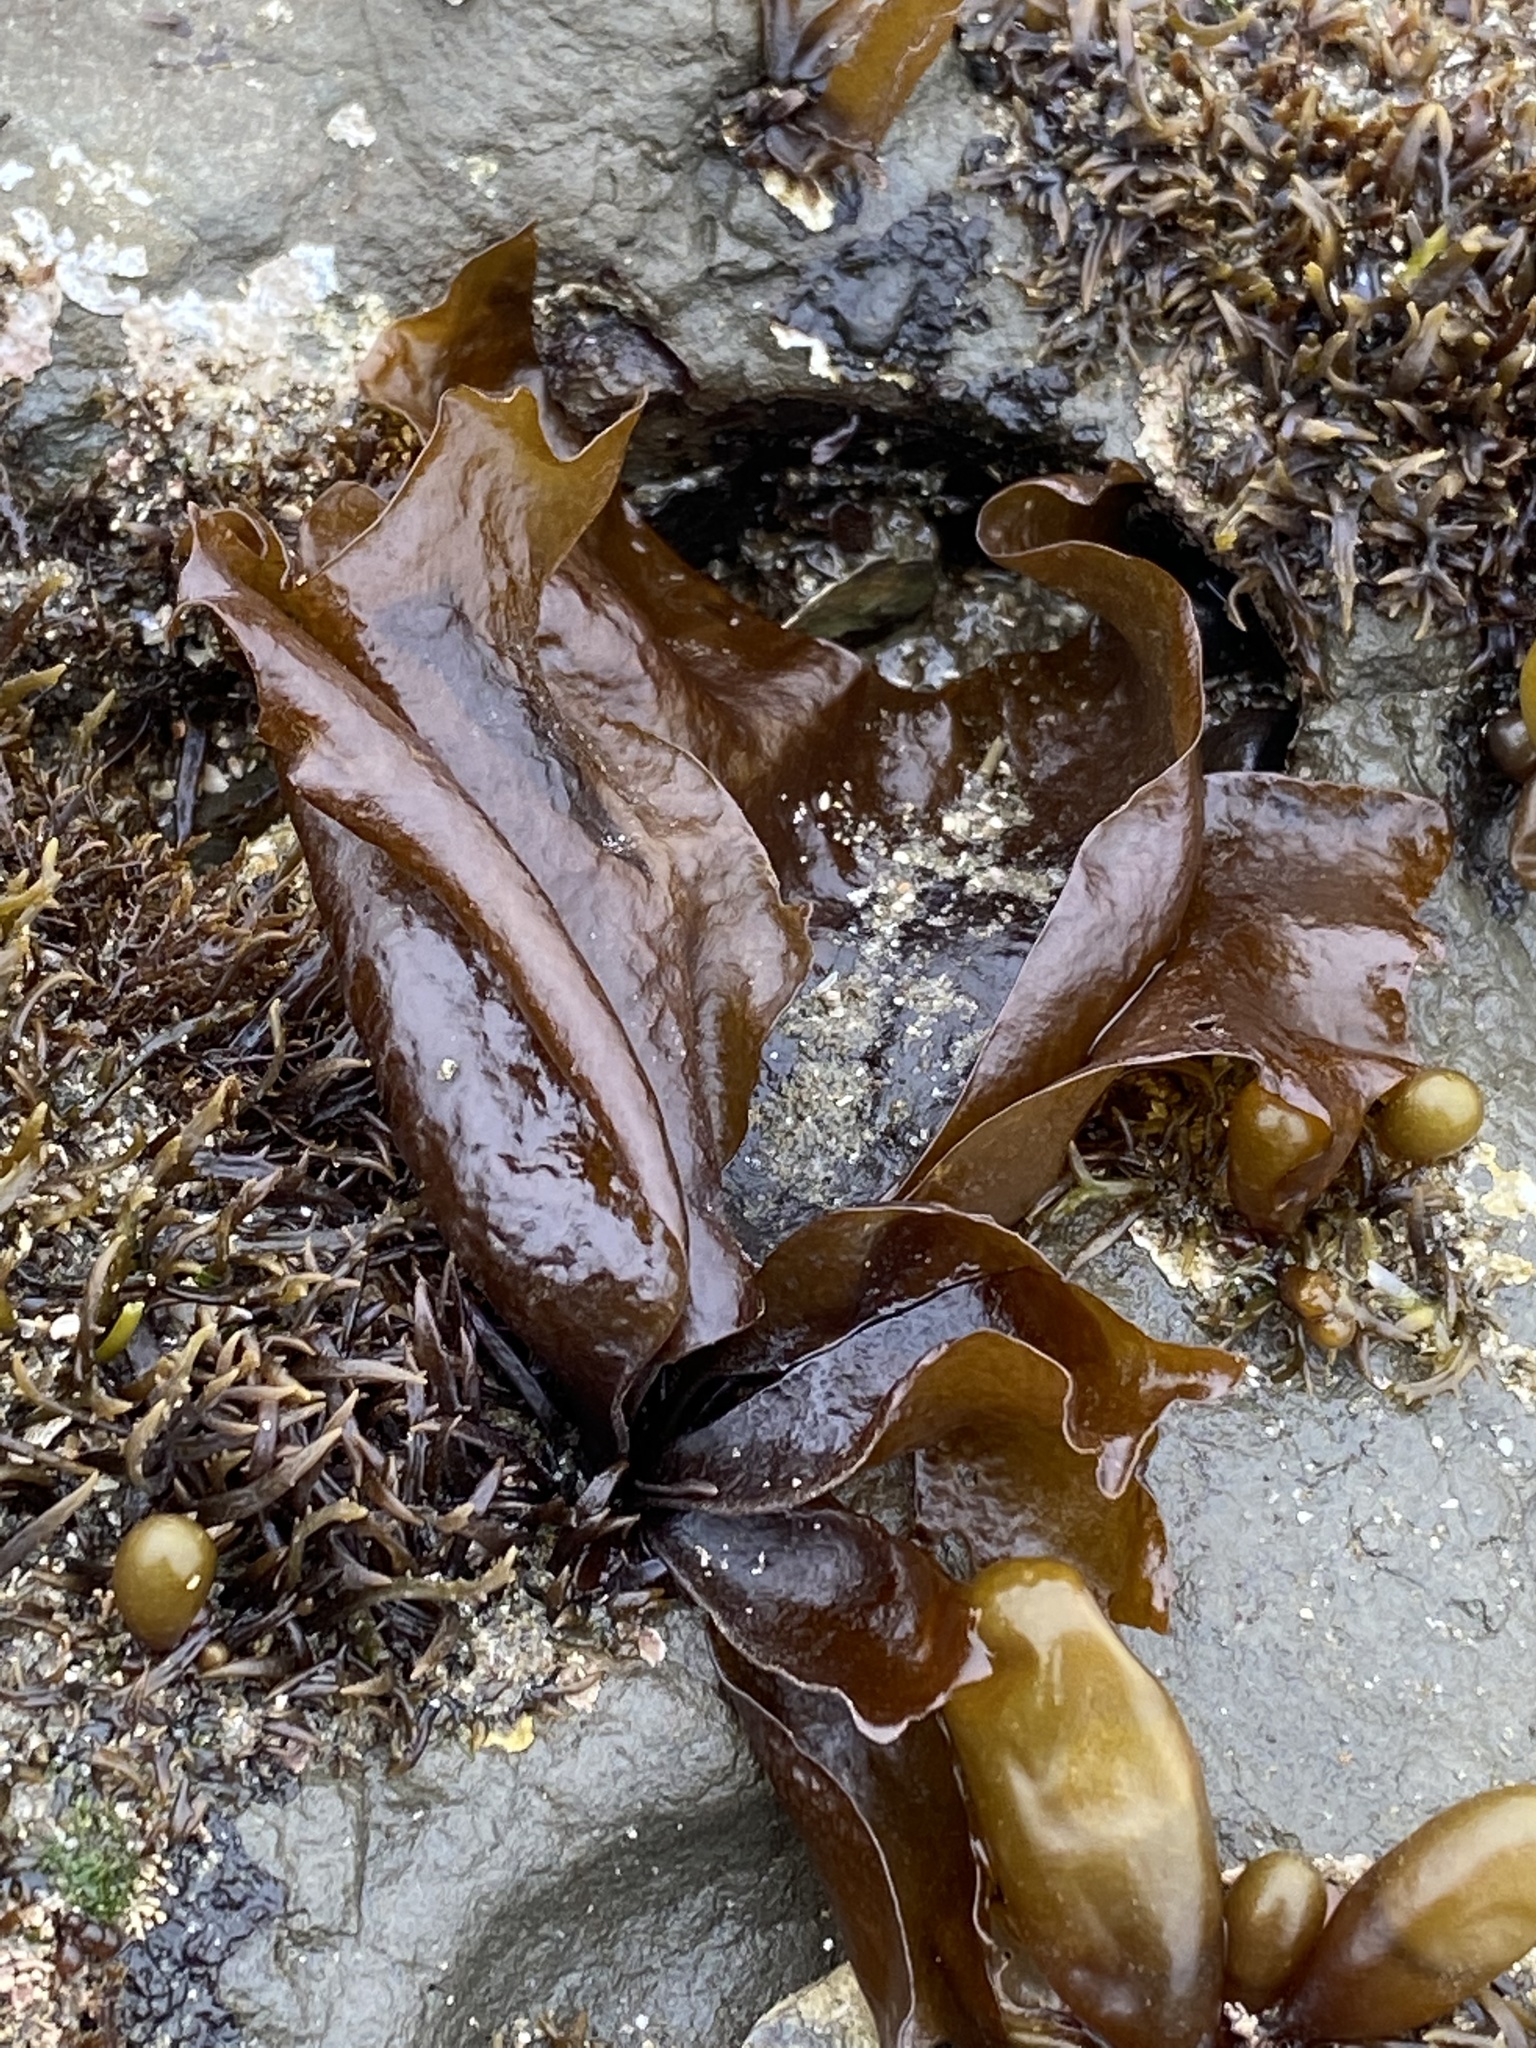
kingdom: Plantae
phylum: Rhodophyta
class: Florideophyceae
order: Gigartinales
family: Phyllophoraceae
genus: Mastocarpus
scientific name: Mastocarpus papillatus
